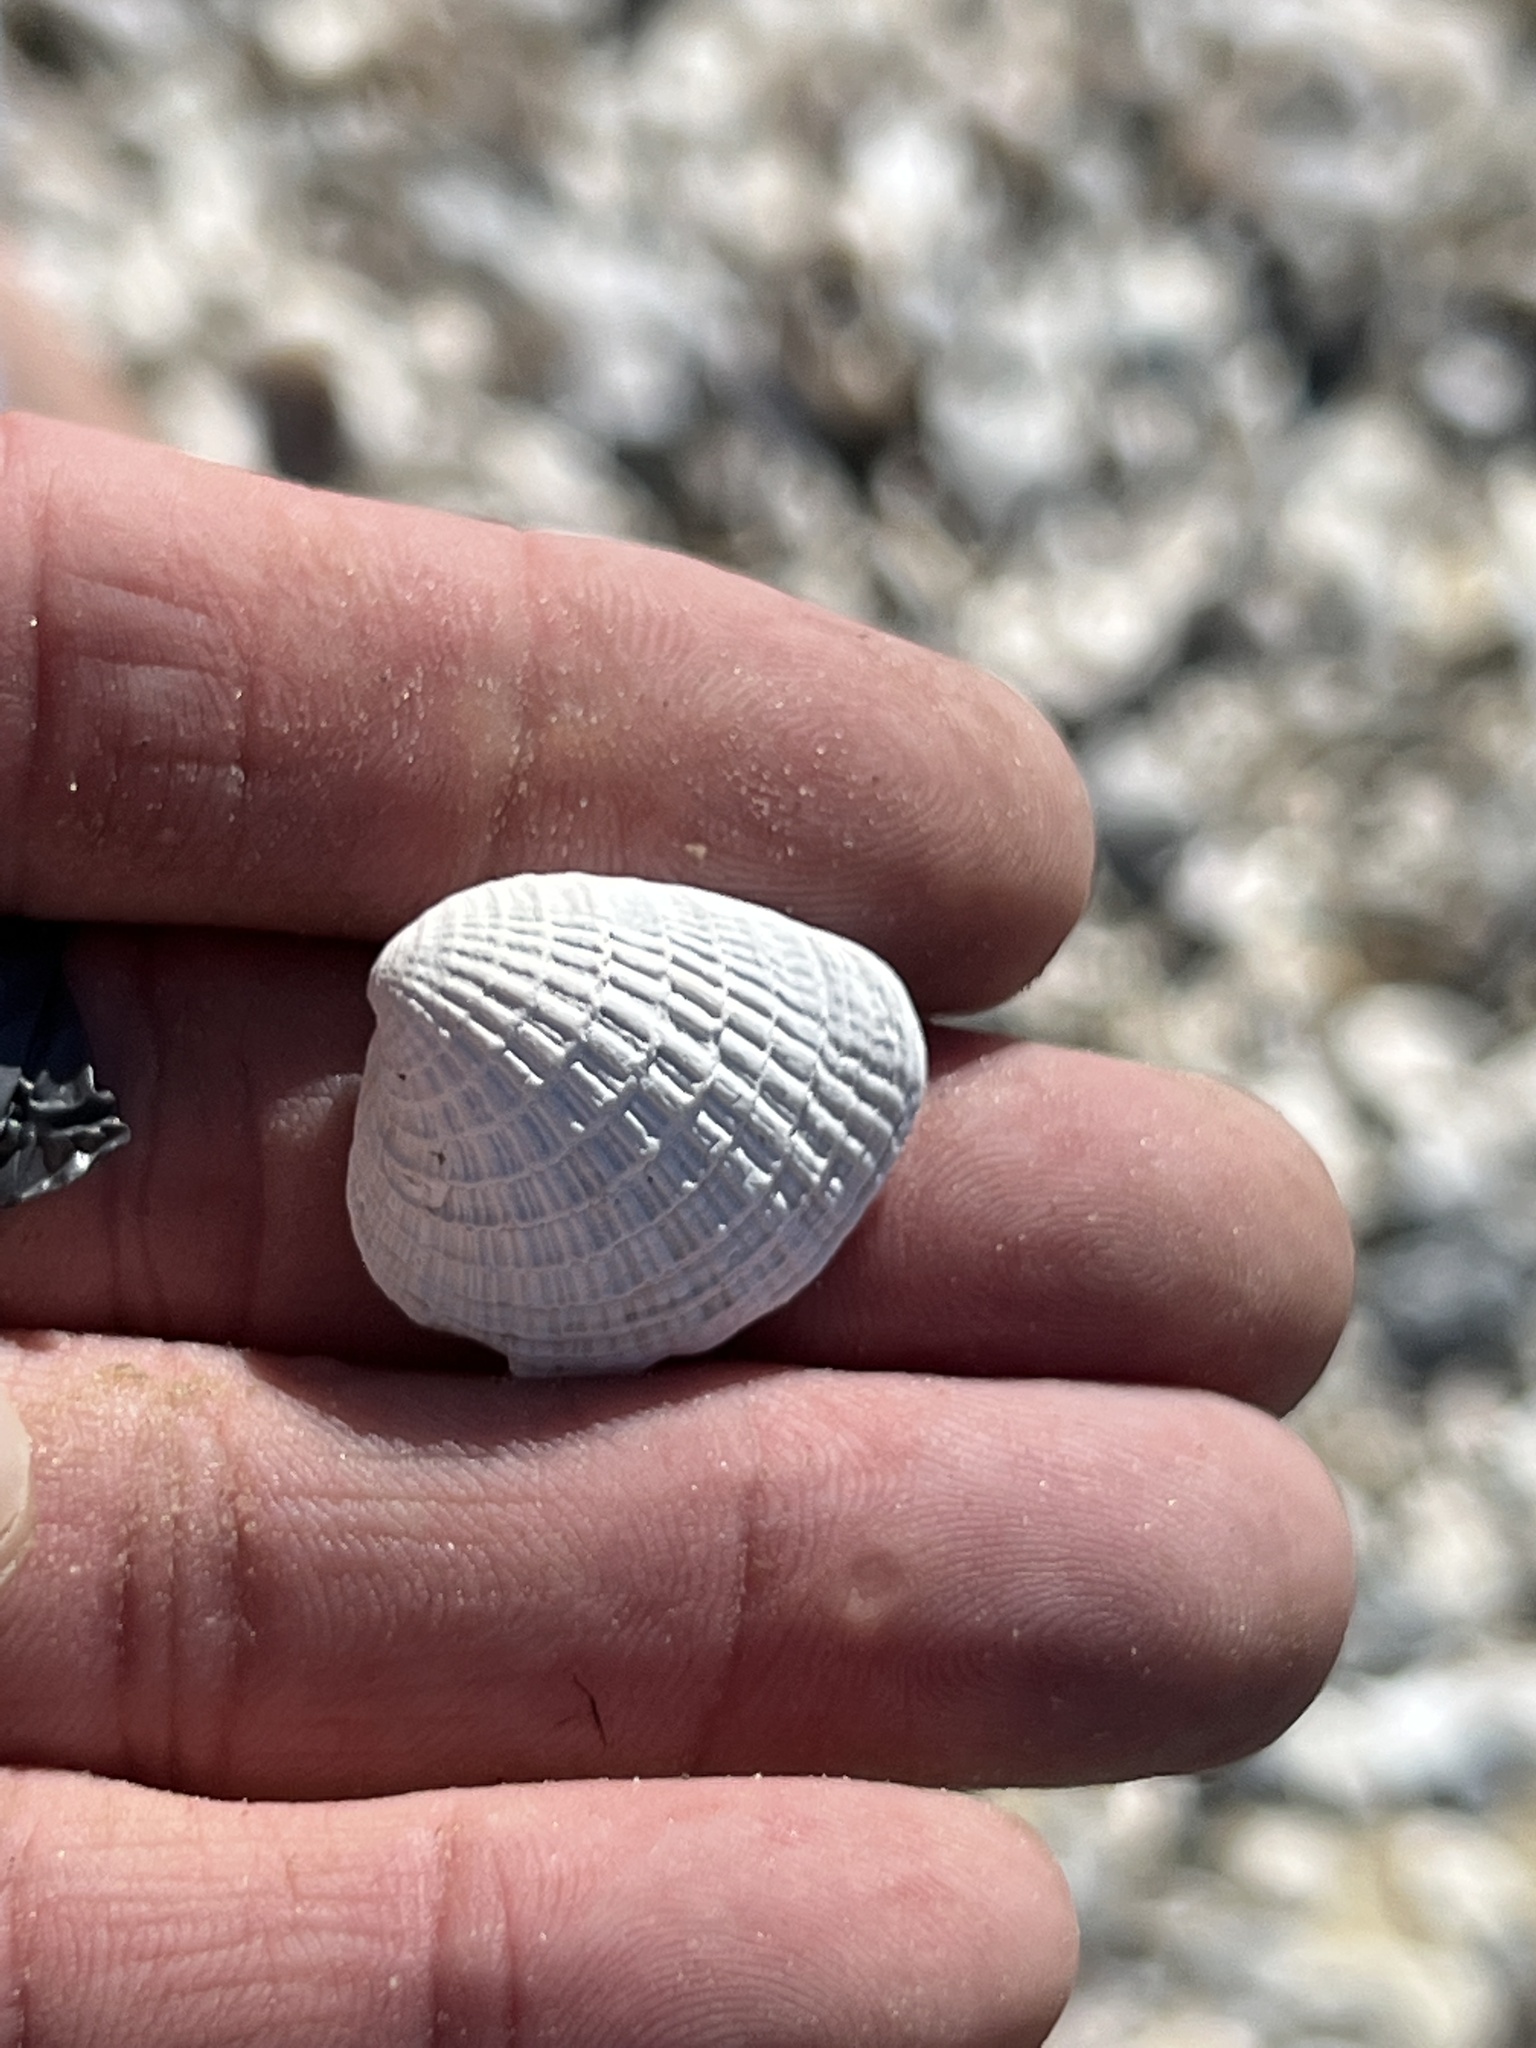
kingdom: Animalia
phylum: Mollusca
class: Bivalvia
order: Venerida
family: Veneridae
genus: Chione
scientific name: Chione elevata
